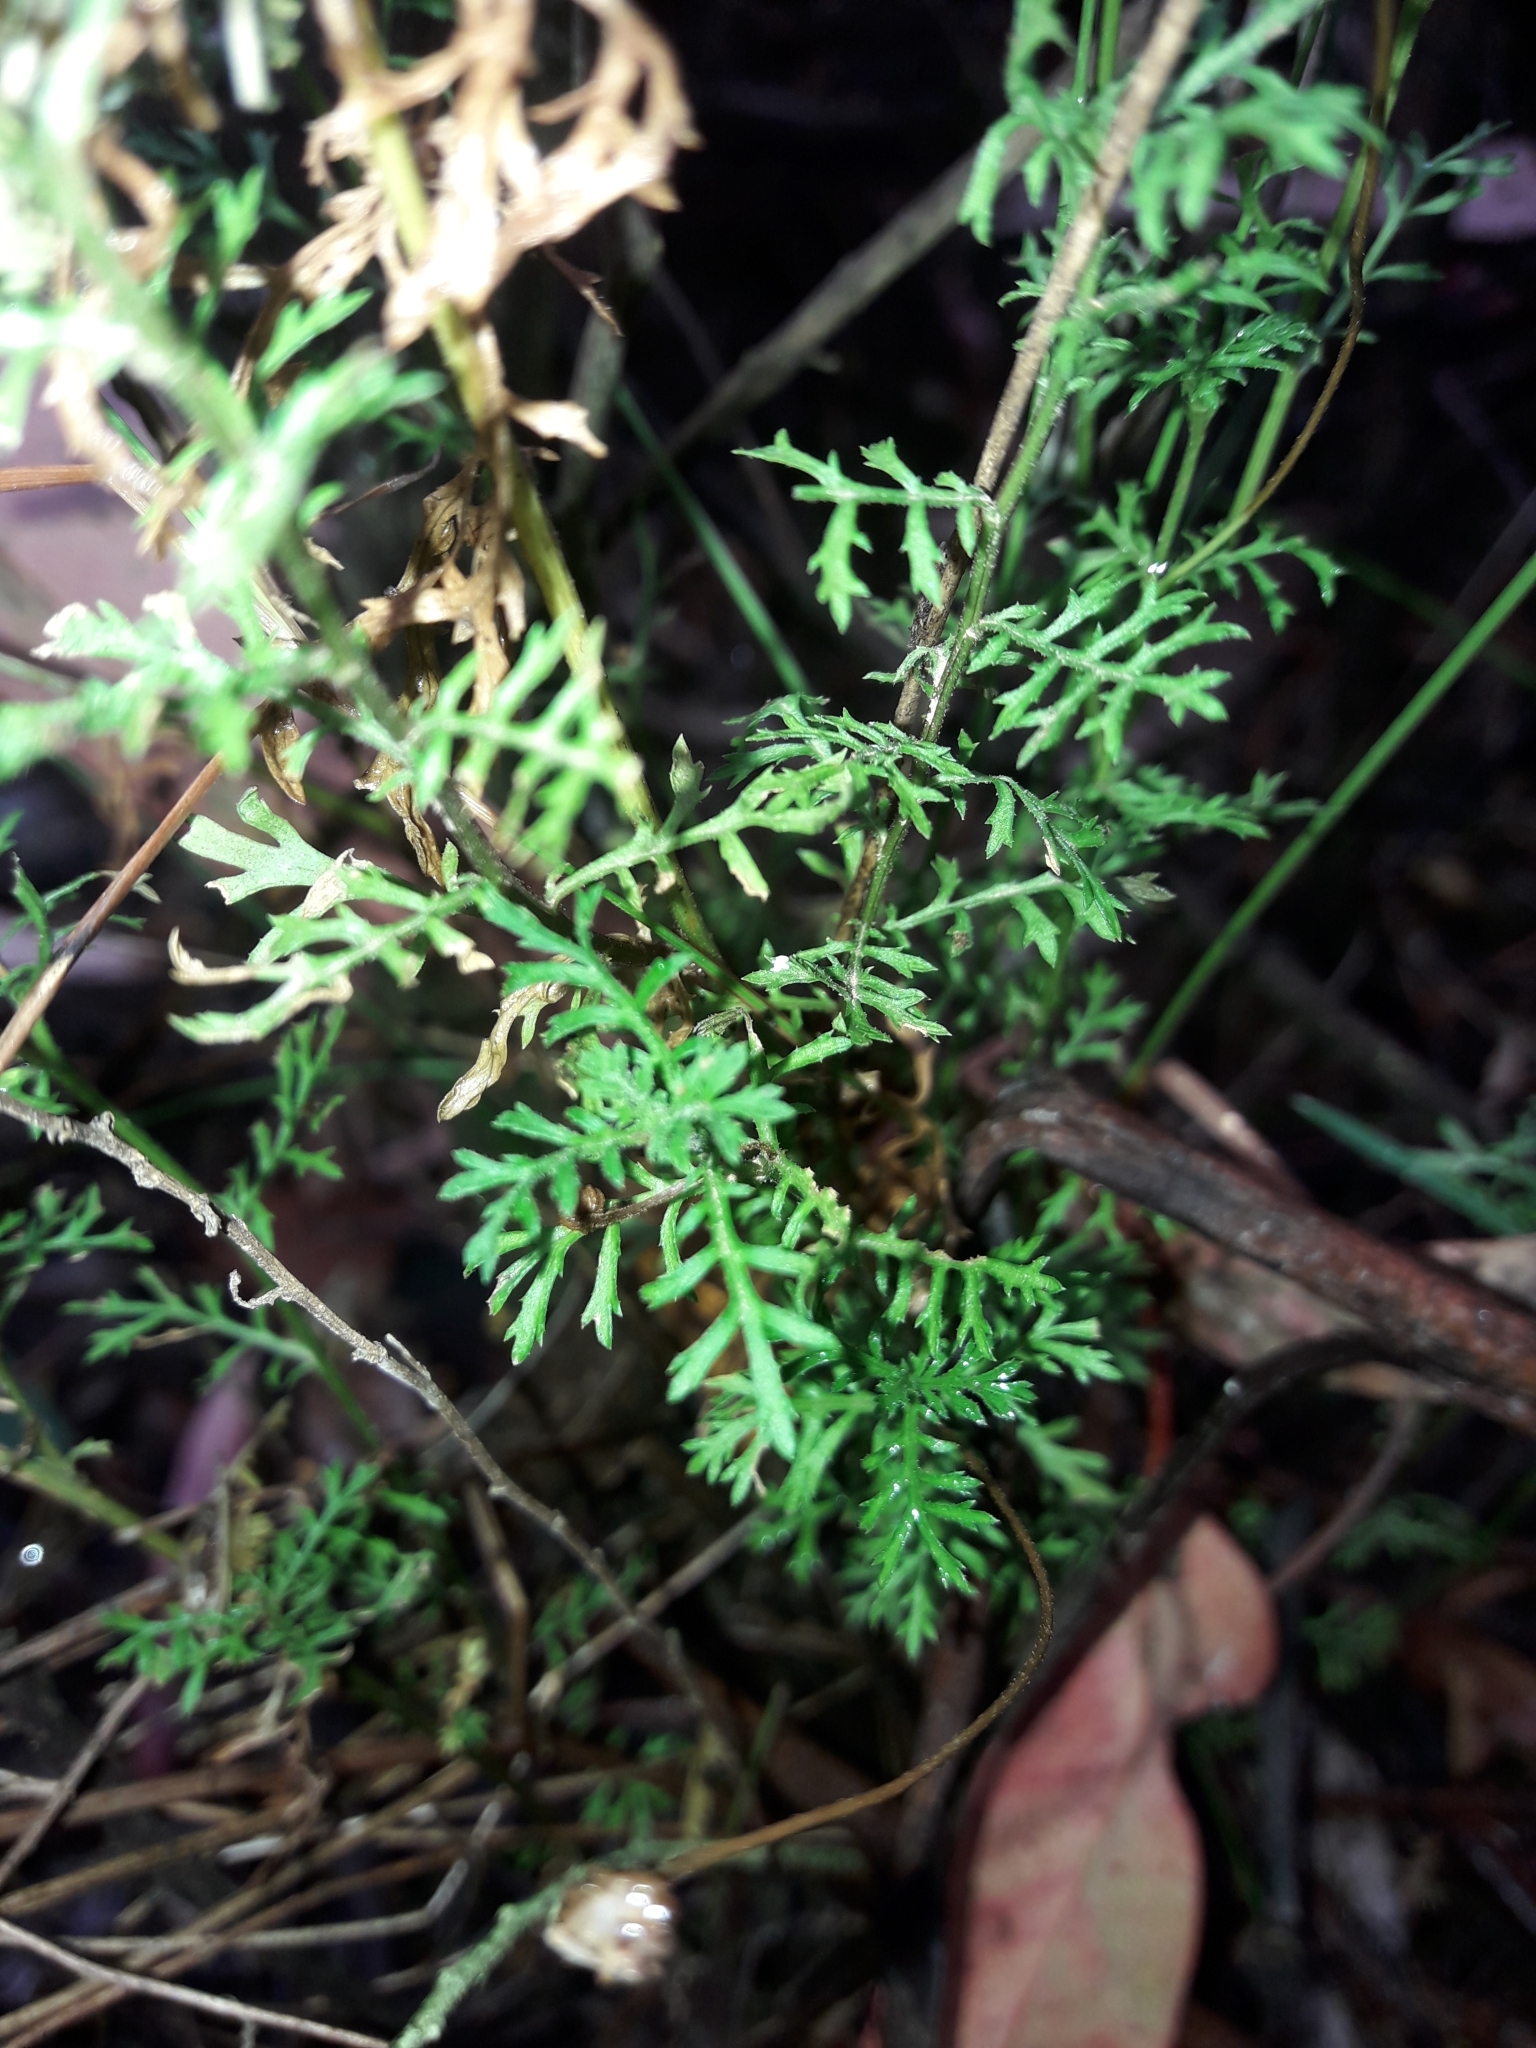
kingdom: Plantae
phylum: Tracheophyta
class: Magnoliopsida
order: Asterales
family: Asteraceae
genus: Brachyscome
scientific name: Brachyscome multifida
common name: Cut-leaf daisy
